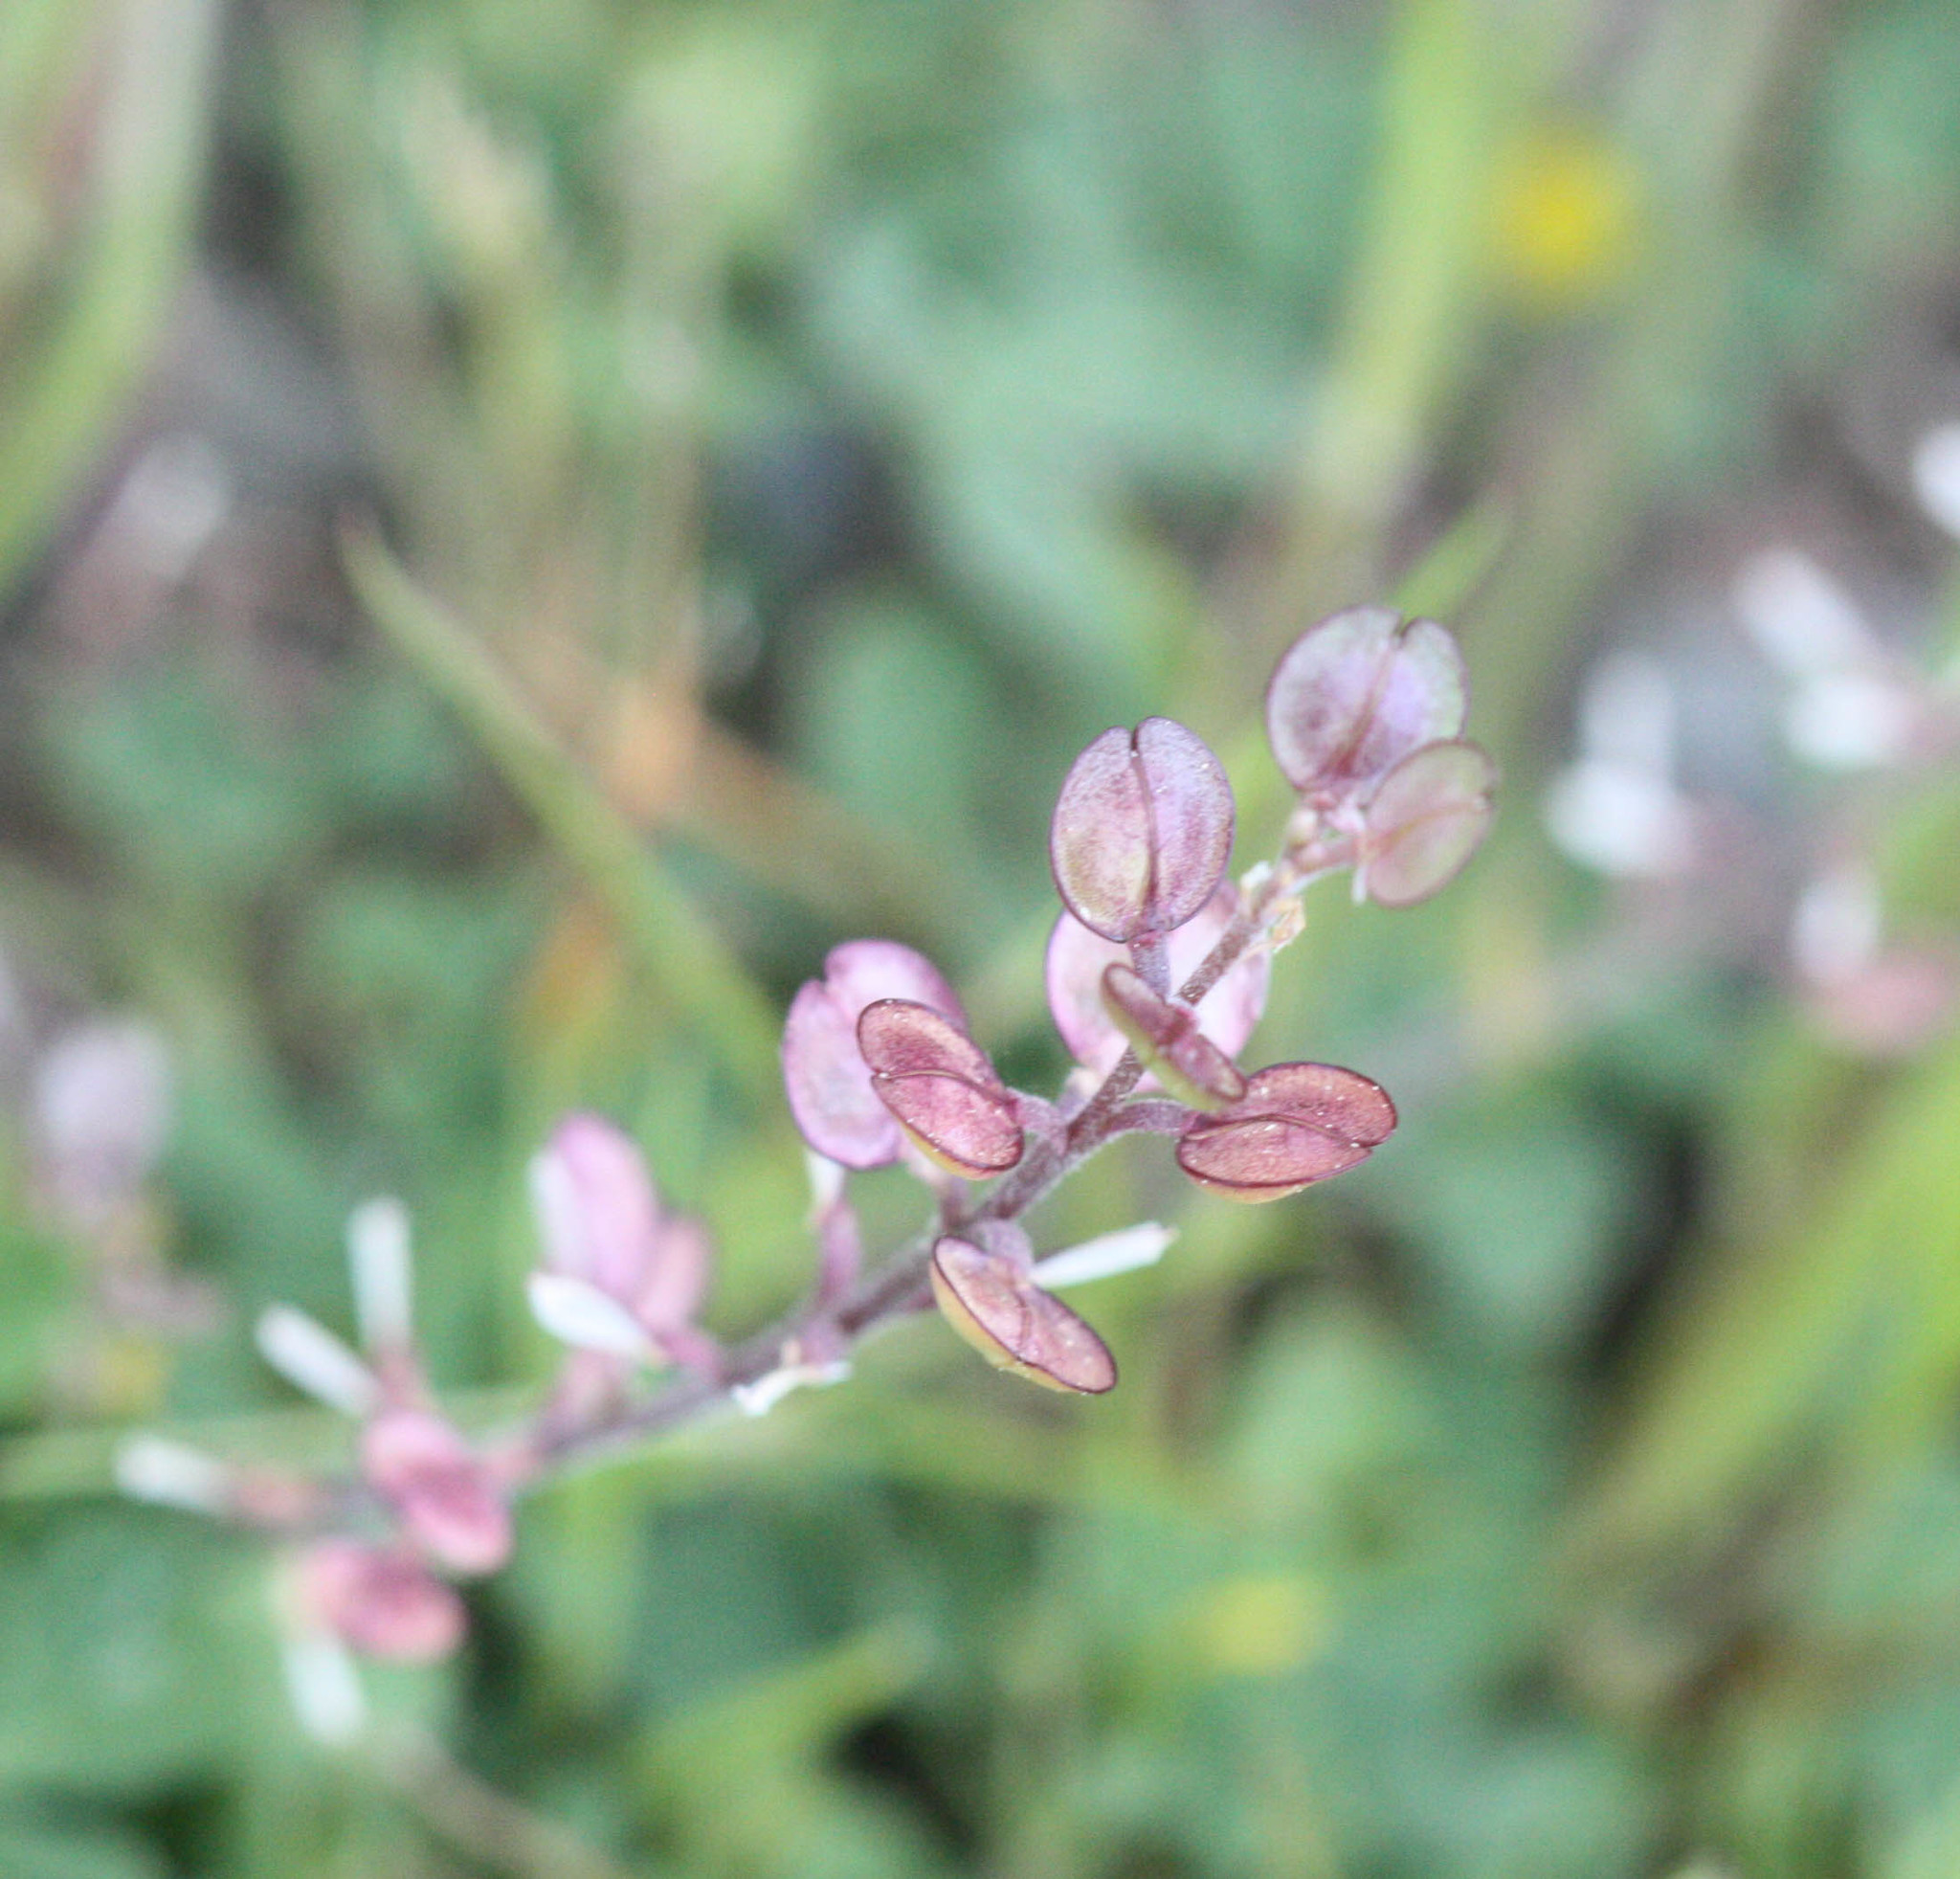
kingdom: Plantae
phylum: Tracheophyta
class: Magnoliopsida
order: Brassicales
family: Brassicaceae
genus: Lepidium
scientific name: Lepidium nitidum
